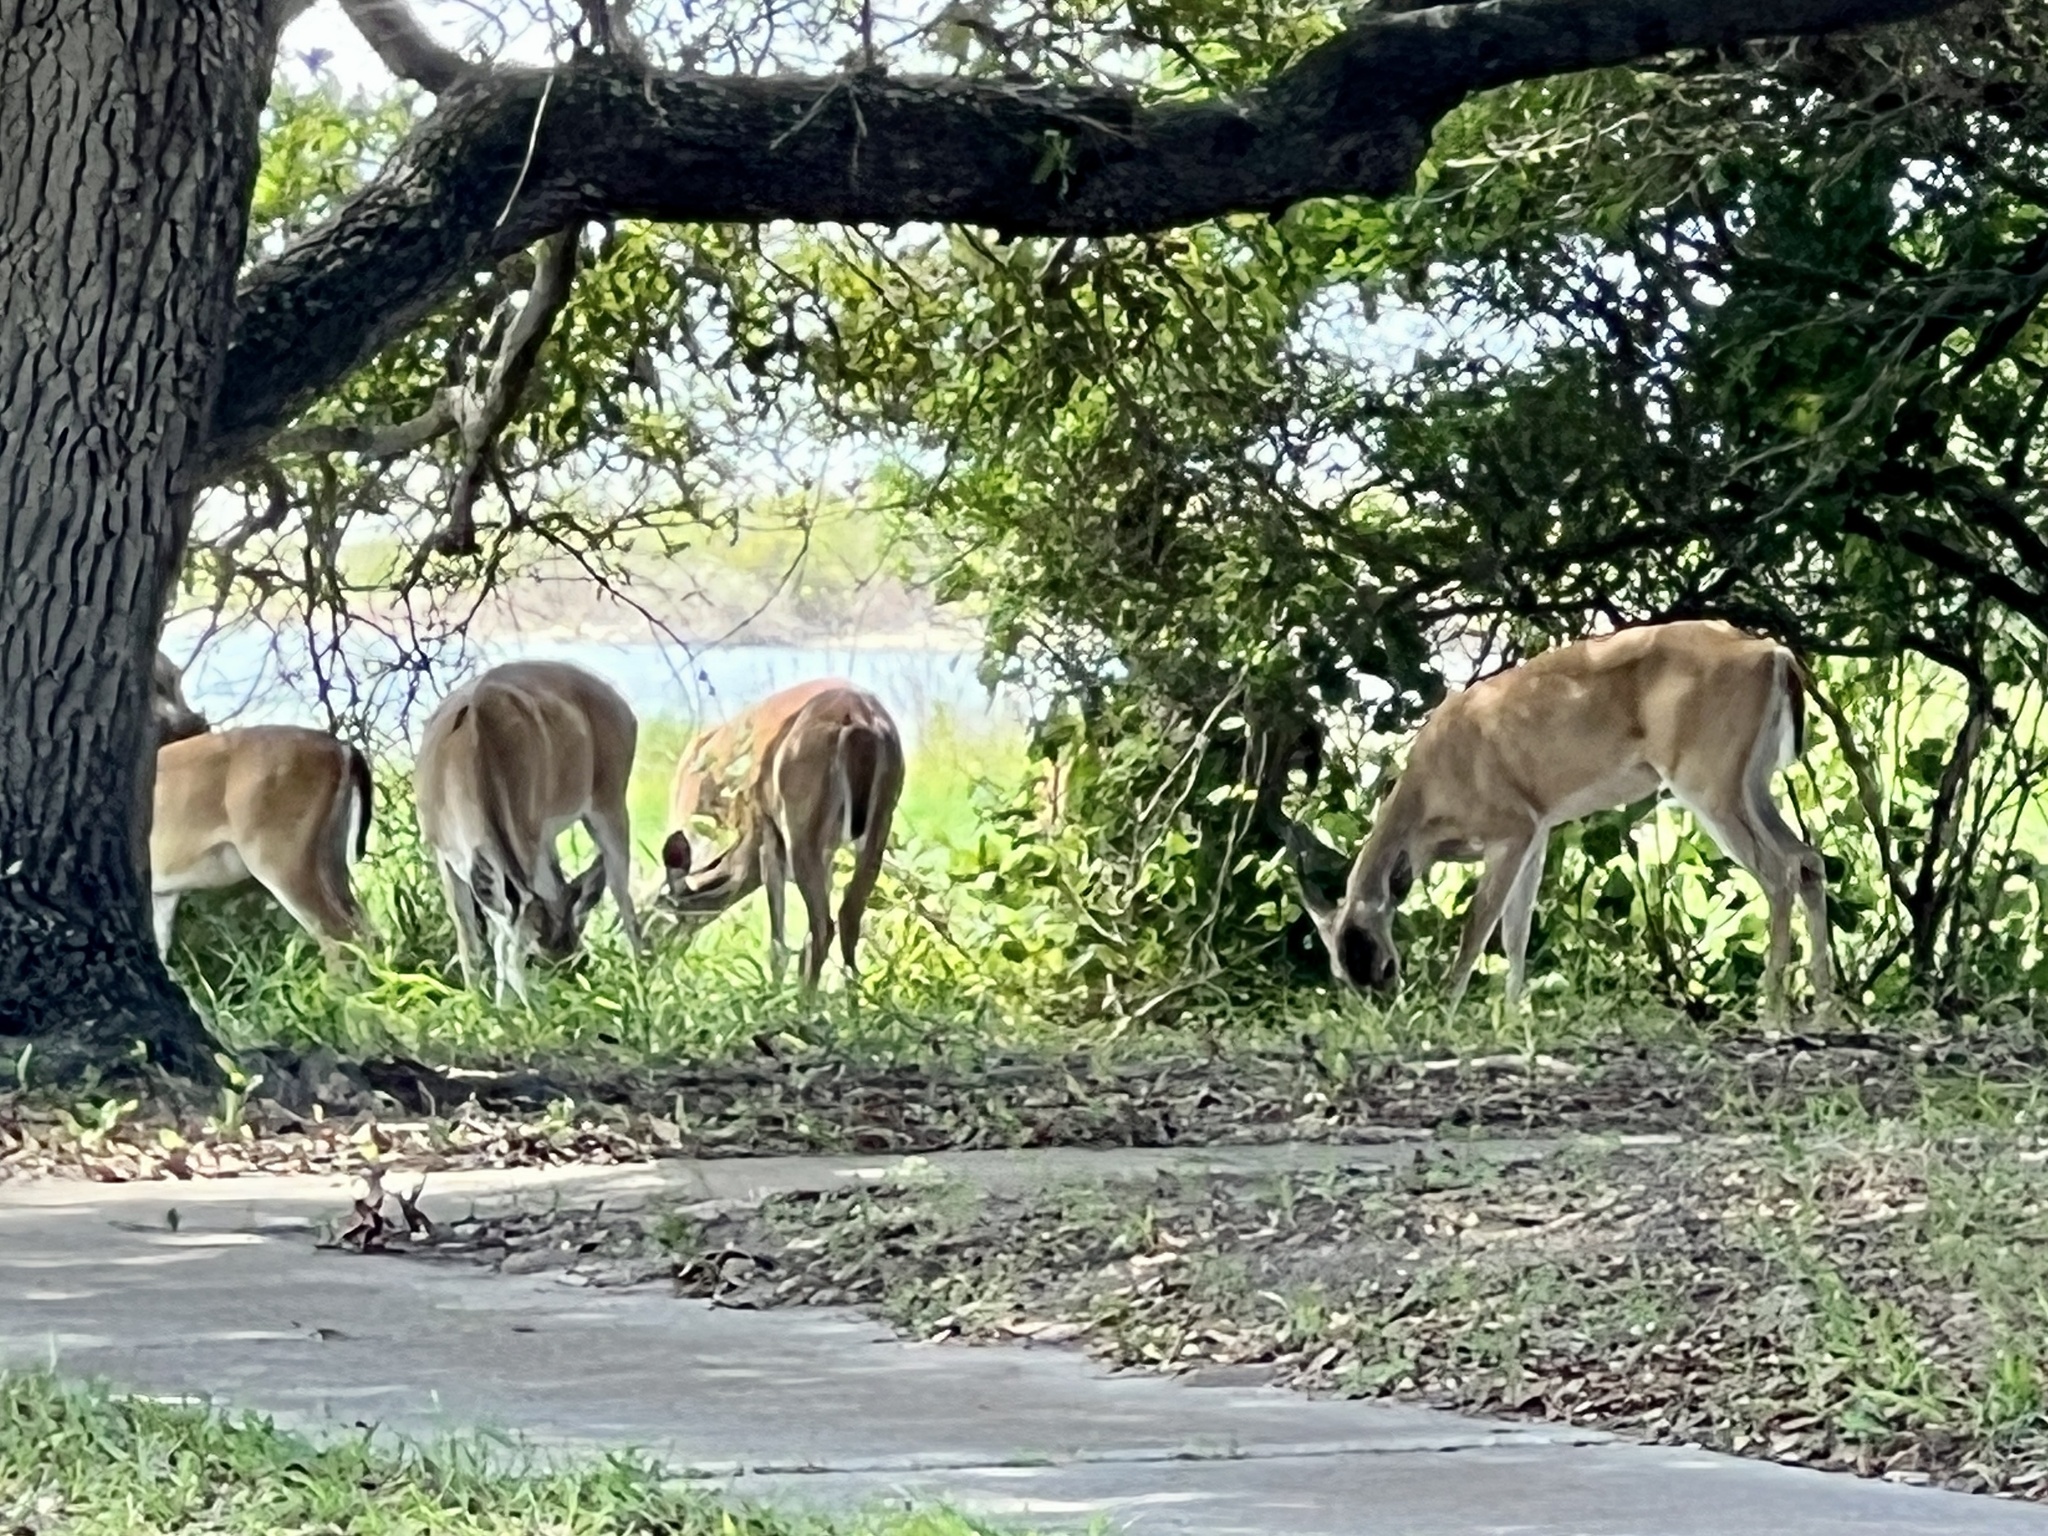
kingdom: Animalia
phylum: Chordata
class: Mammalia
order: Artiodactyla
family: Cervidae
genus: Odocoileus
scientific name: Odocoileus virginianus
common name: White-tailed deer
